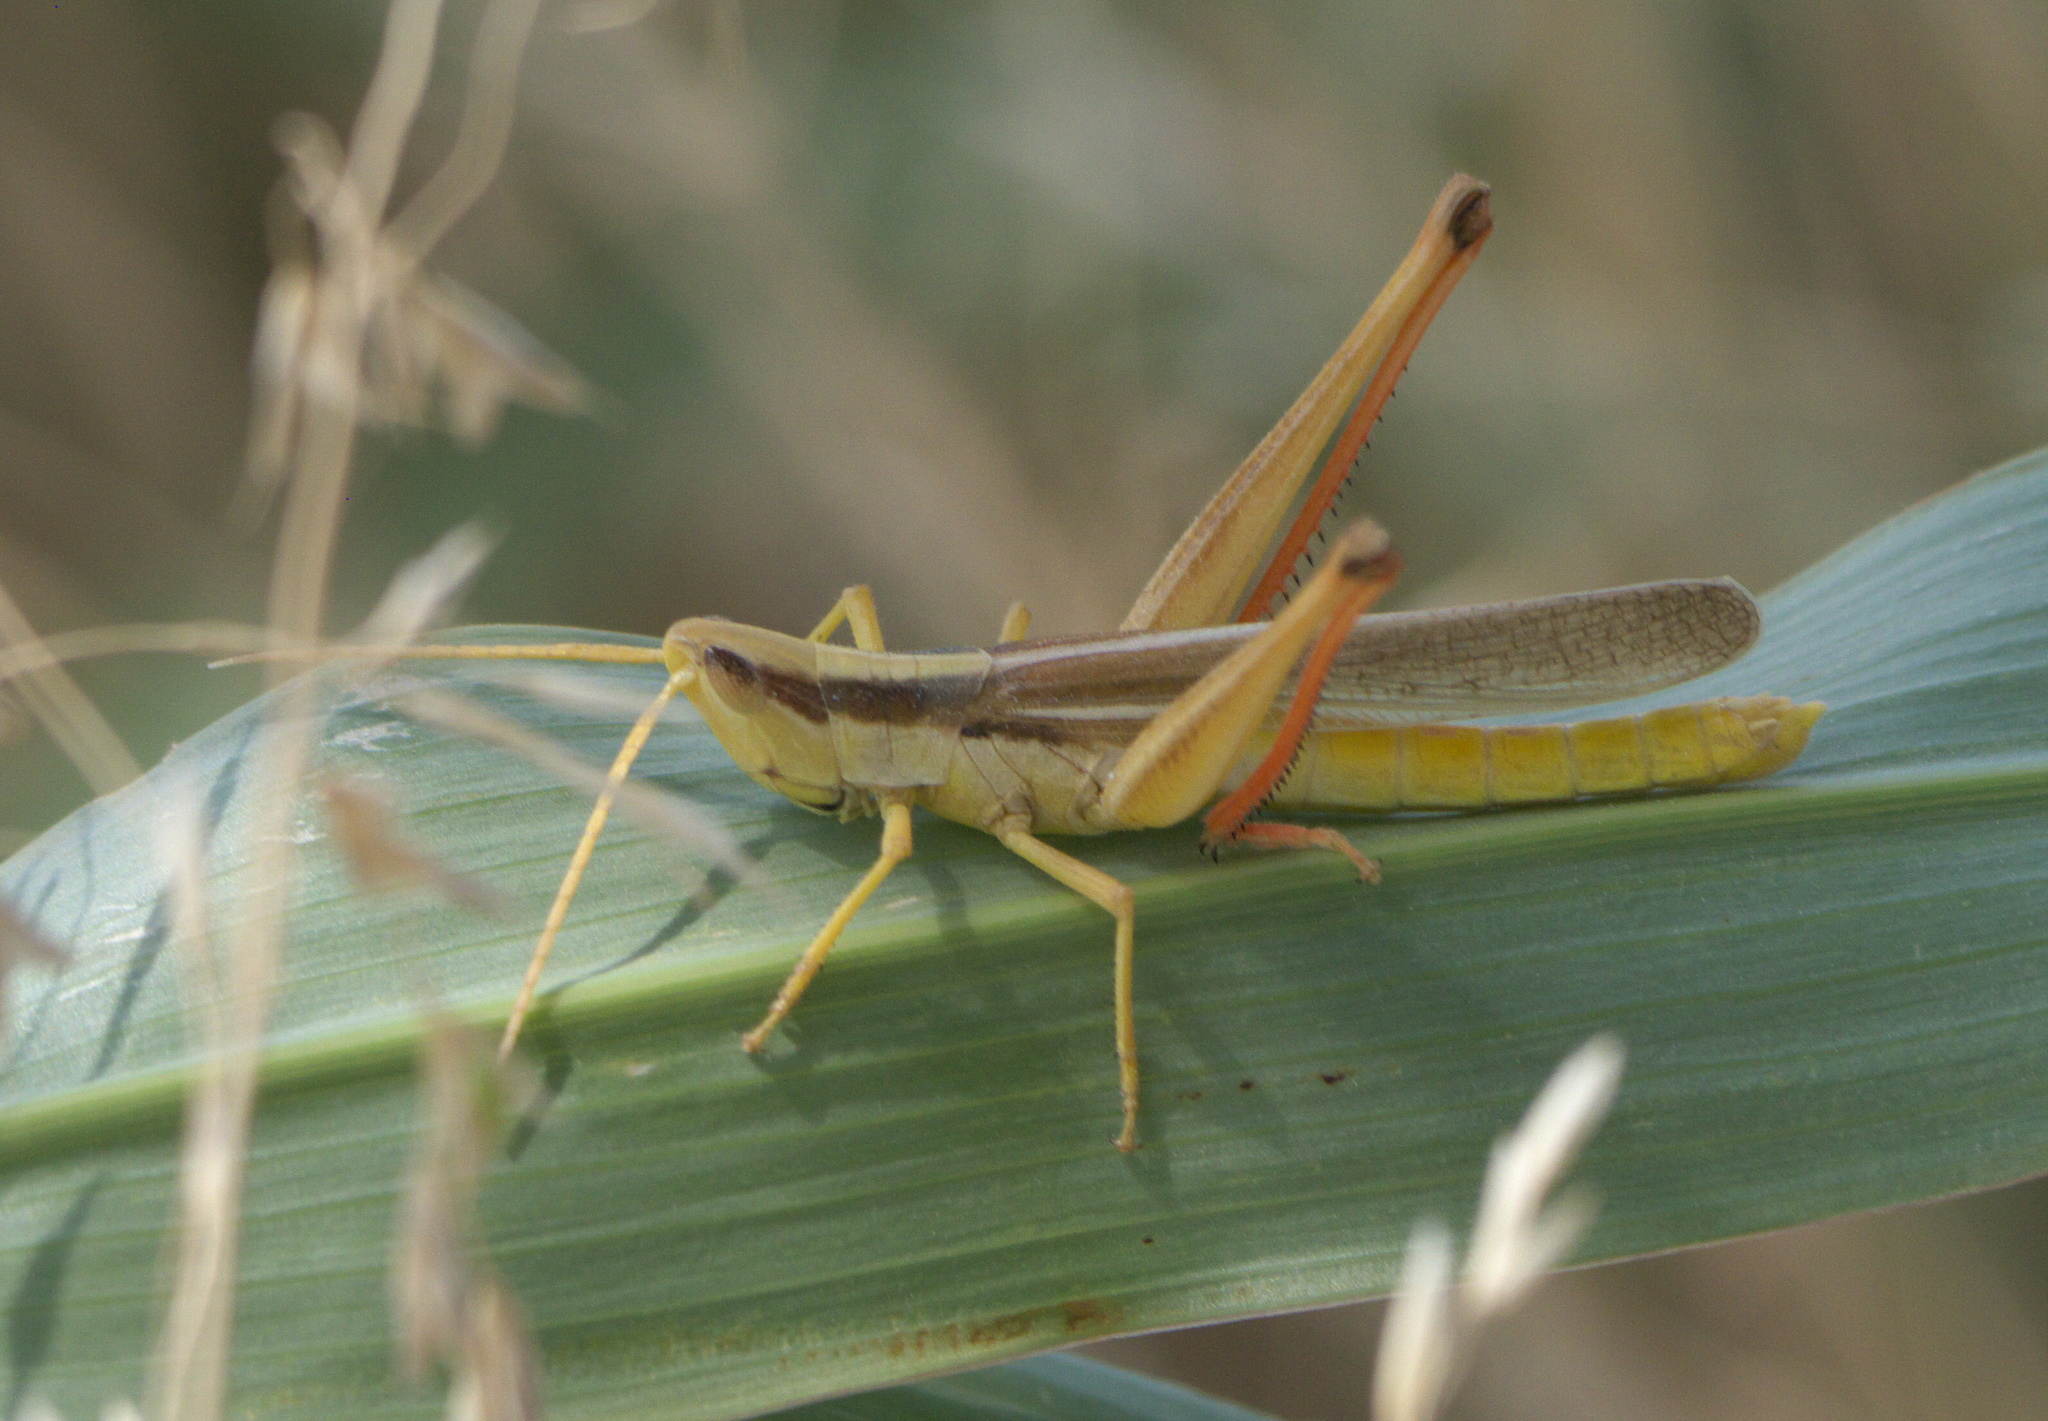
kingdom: Animalia
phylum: Arthropoda
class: Insecta
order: Orthoptera
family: Acrididae
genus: Mermiria
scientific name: Mermiria bivittata
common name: Two-striped mermiria grasshopper
